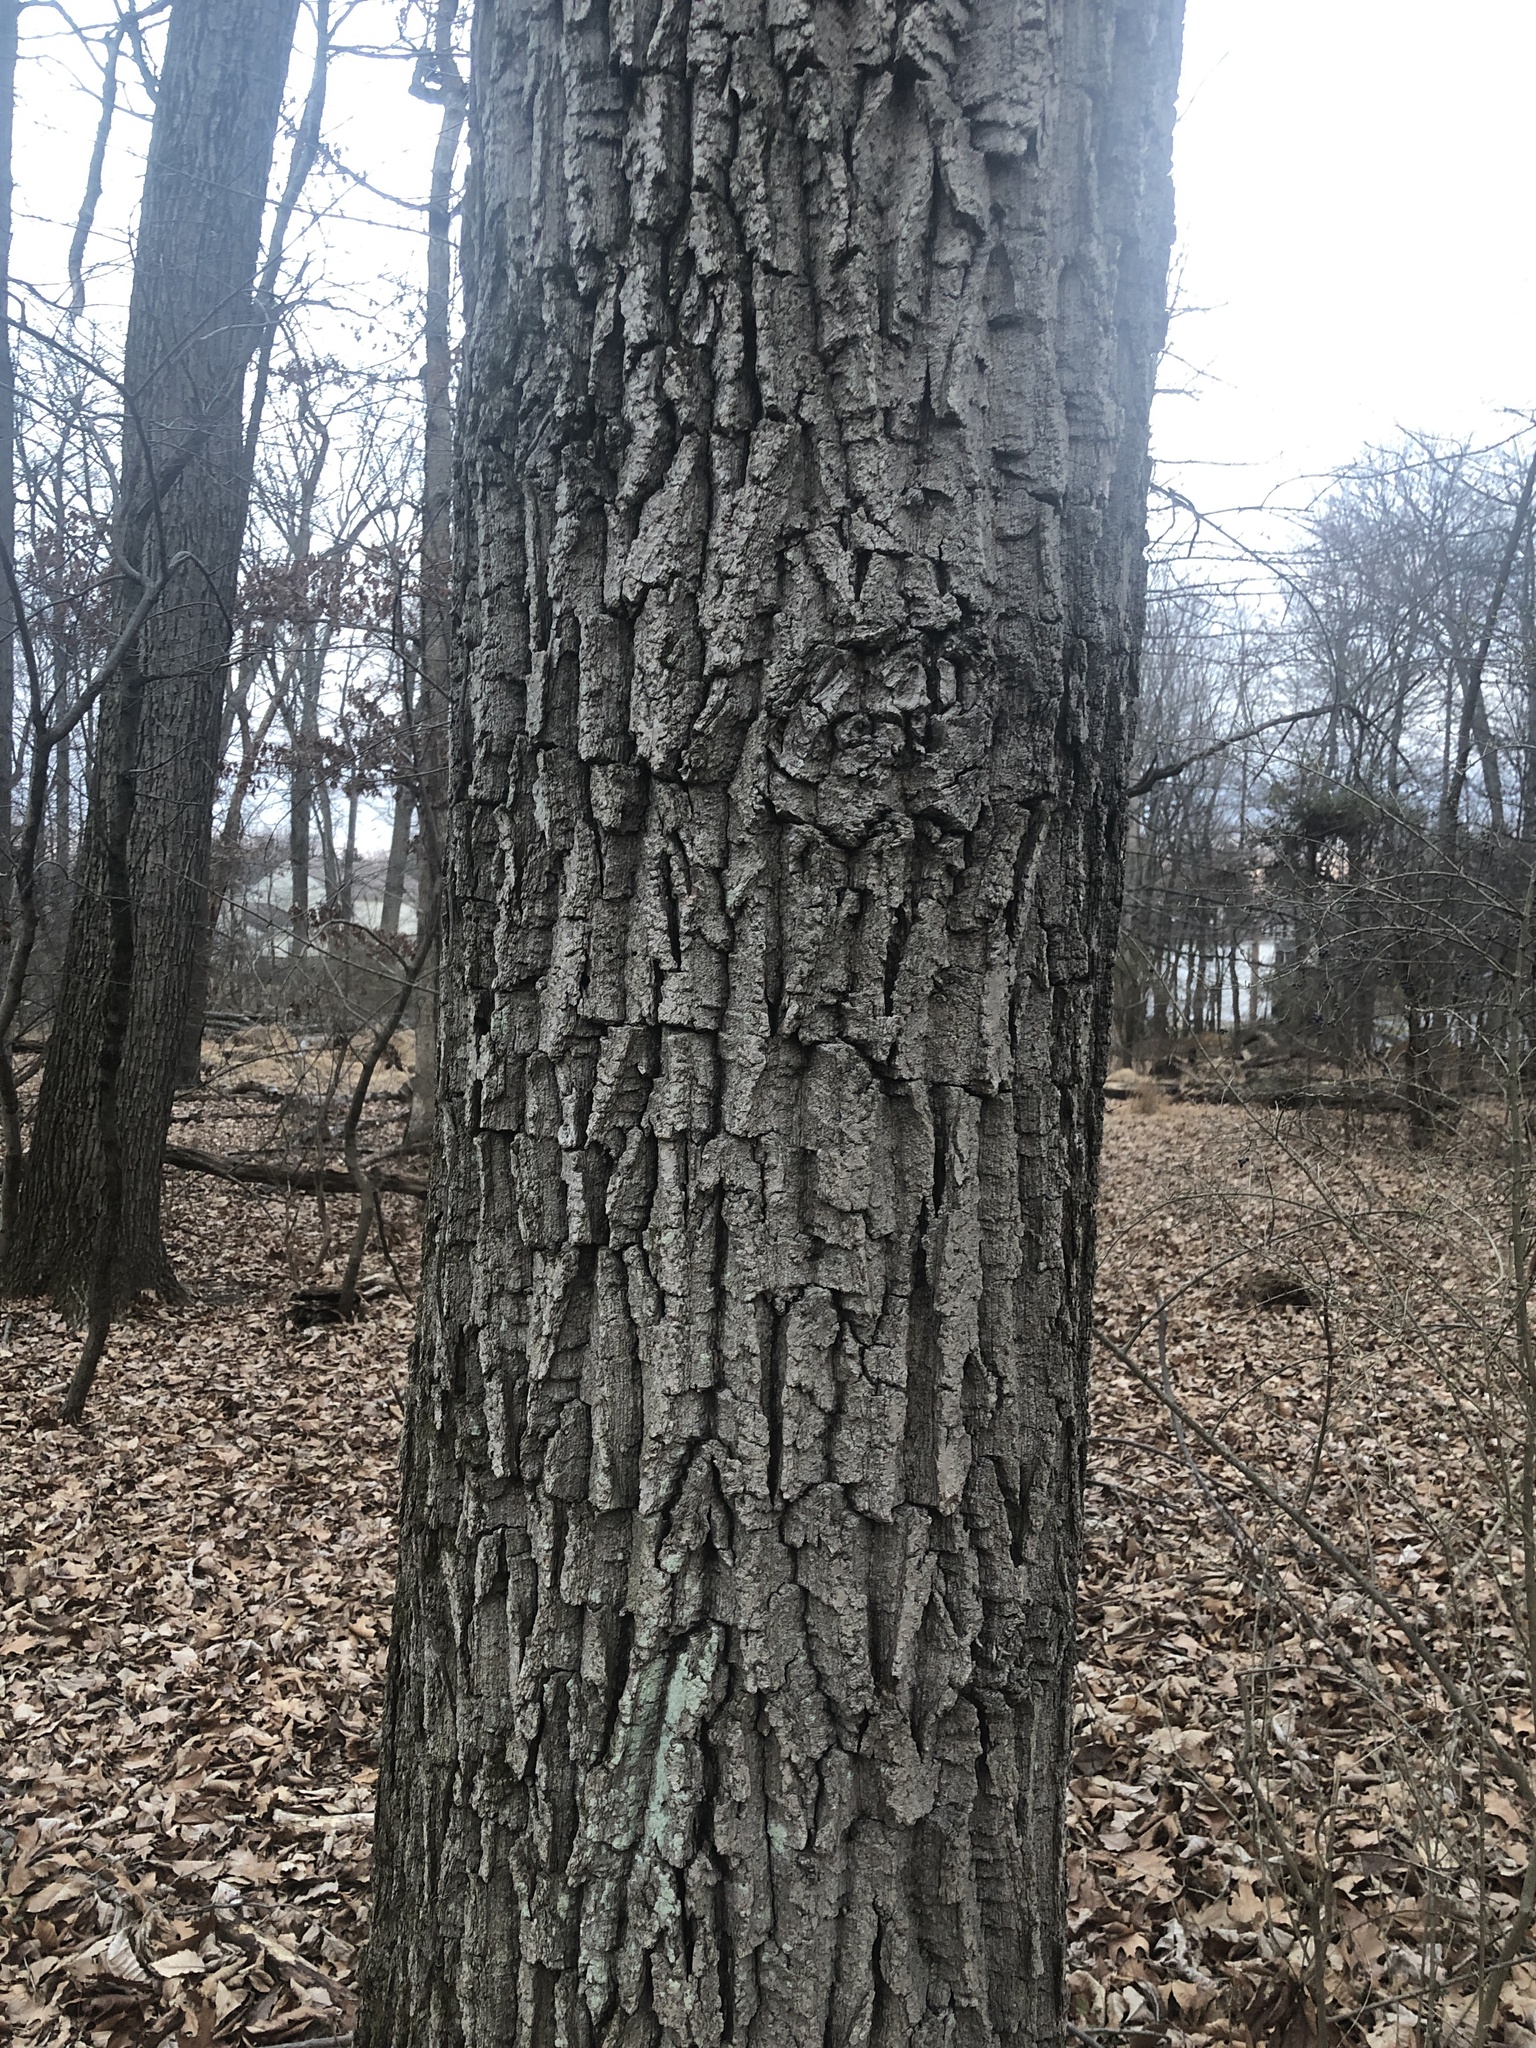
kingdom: Plantae
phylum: Tracheophyta
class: Magnoliopsida
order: Fagales
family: Fagaceae
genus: Quercus
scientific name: Quercus montana
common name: Chestnut oak
